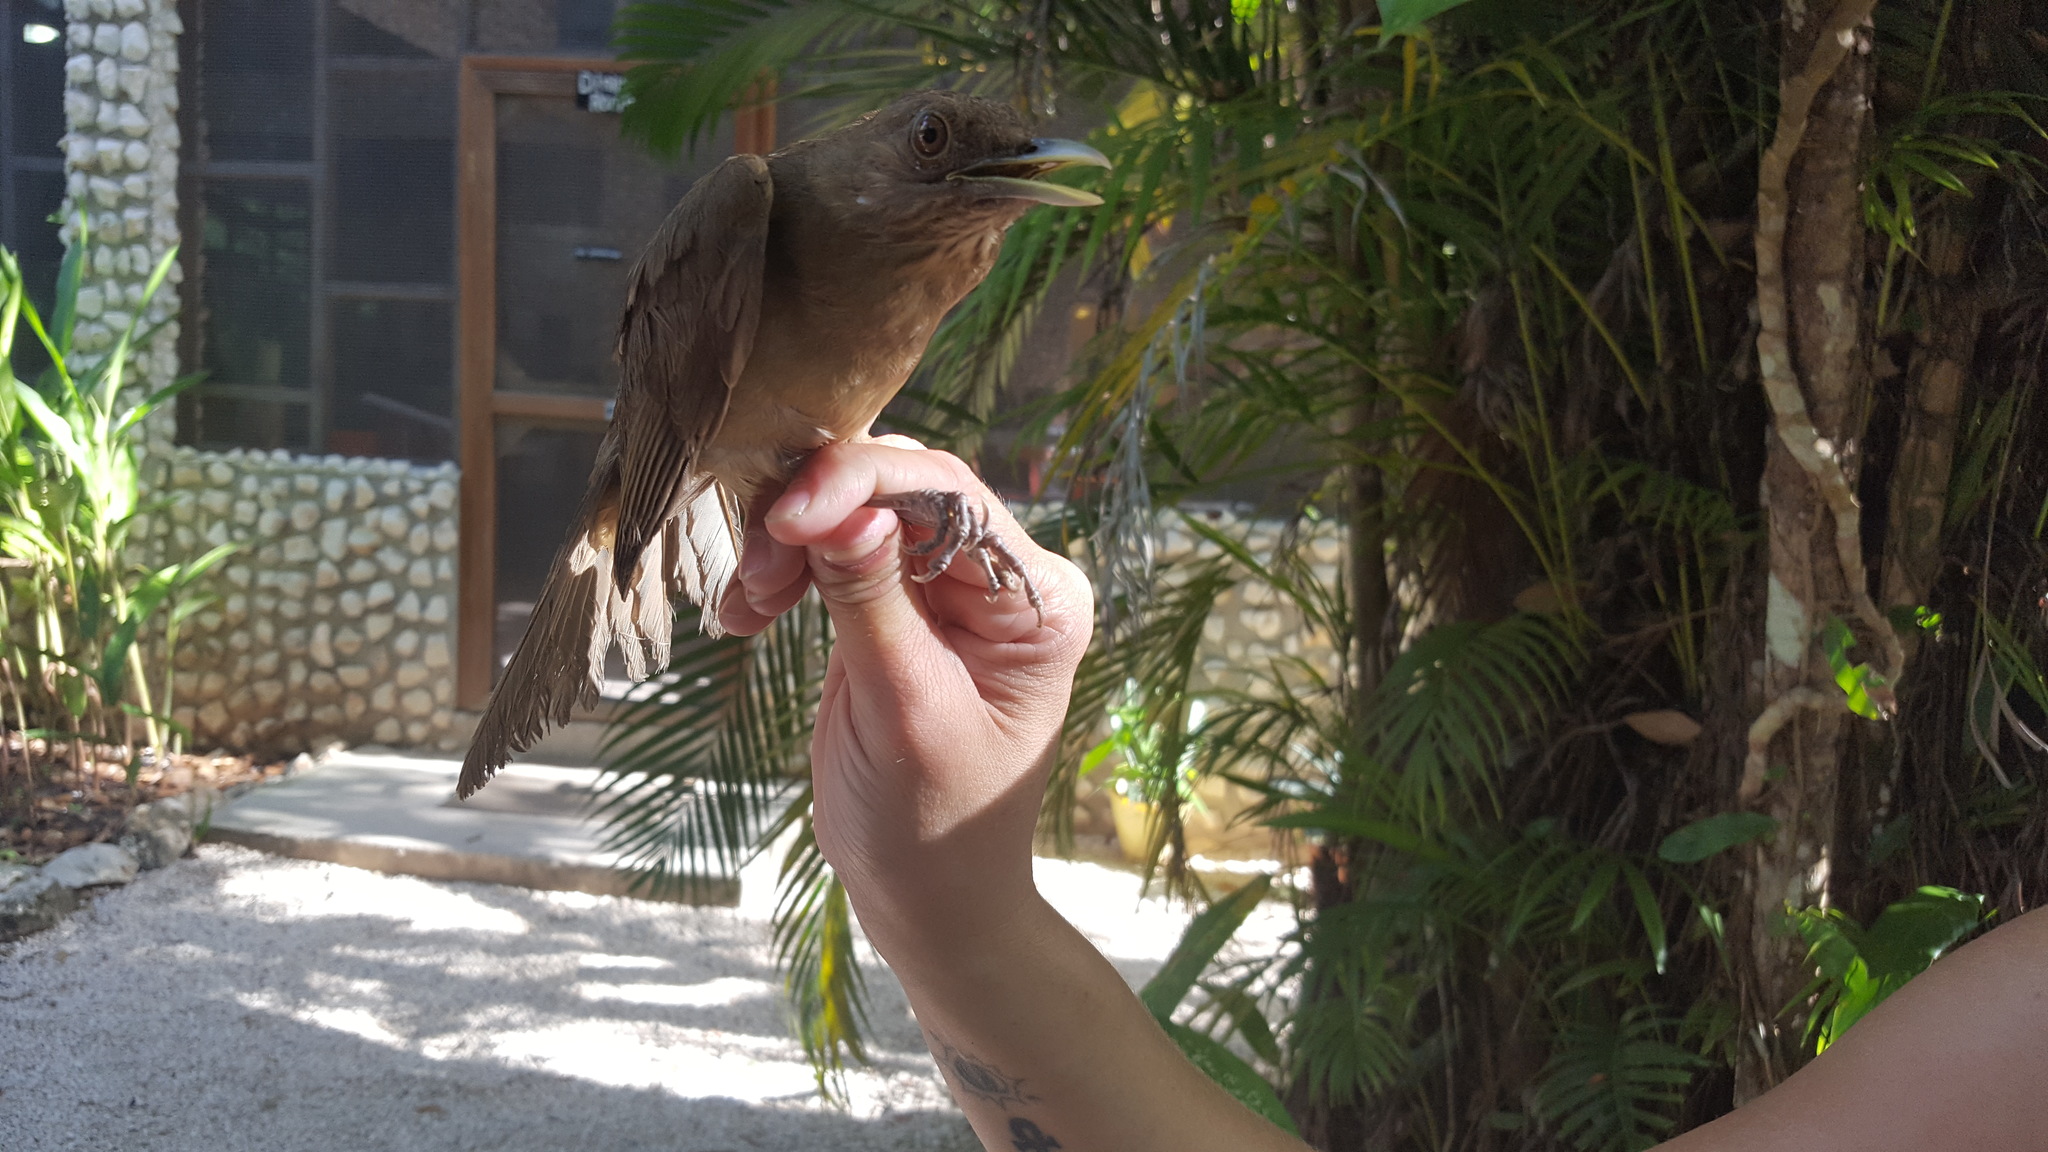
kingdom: Animalia
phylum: Chordata
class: Aves
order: Passeriformes
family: Turdidae
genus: Turdus
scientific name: Turdus grayi
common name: Clay-colored thrush
